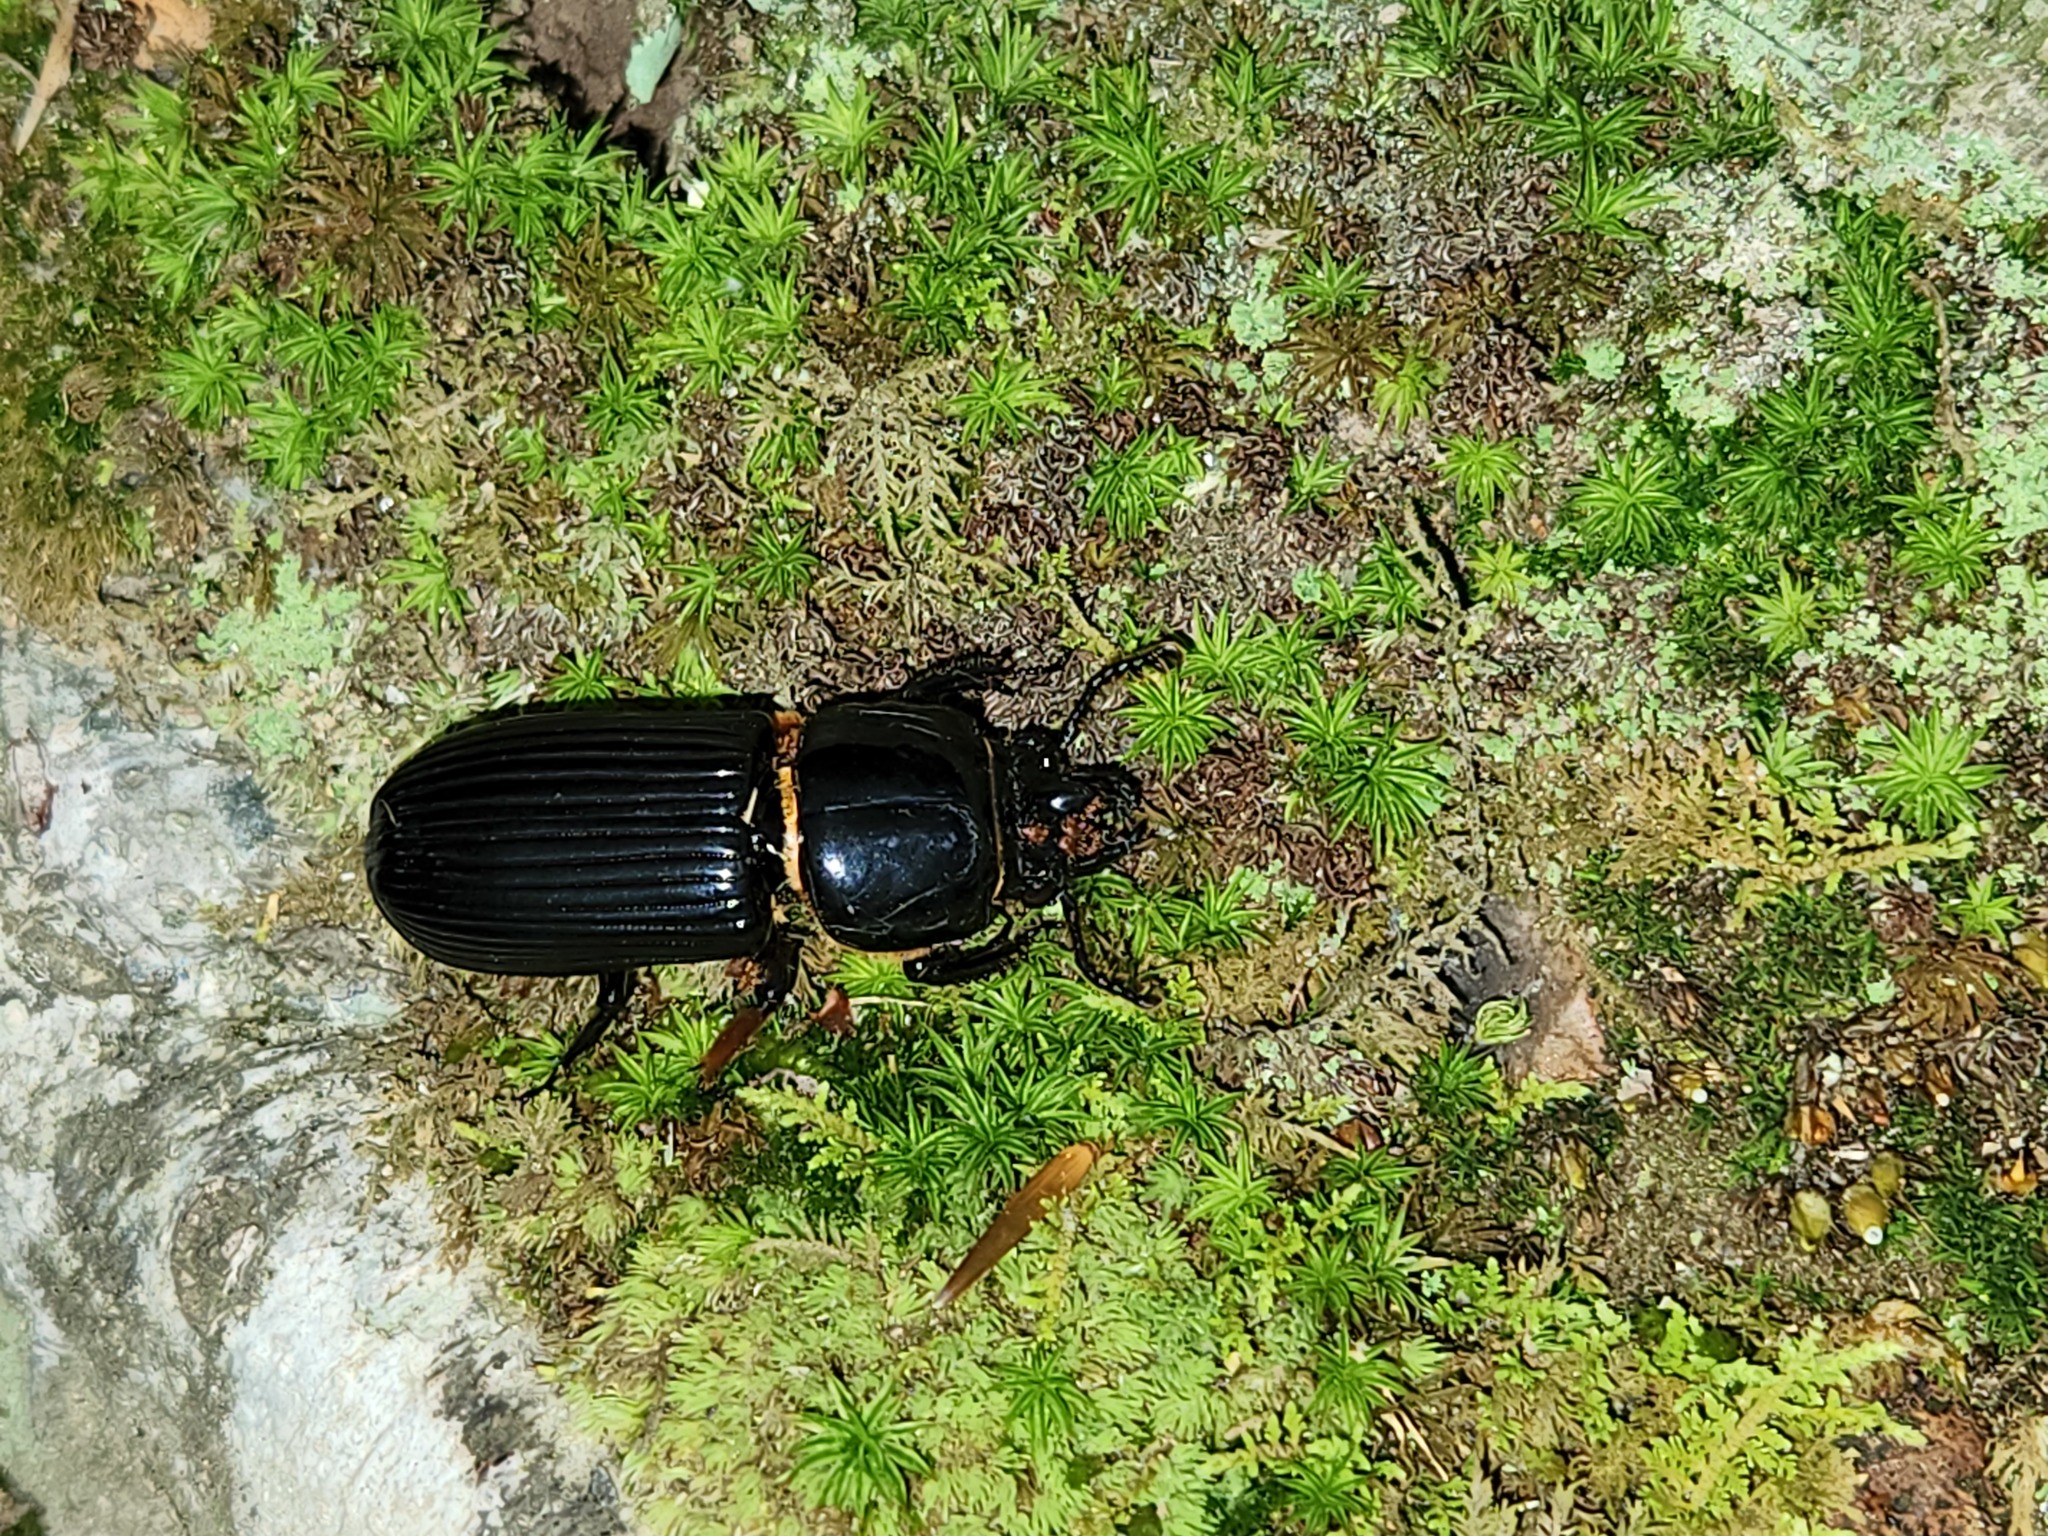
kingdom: Animalia
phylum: Arthropoda
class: Insecta
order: Coleoptera
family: Passalidae
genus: Odontotaenius
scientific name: Odontotaenius disjunctus
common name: Patent leather beetle
